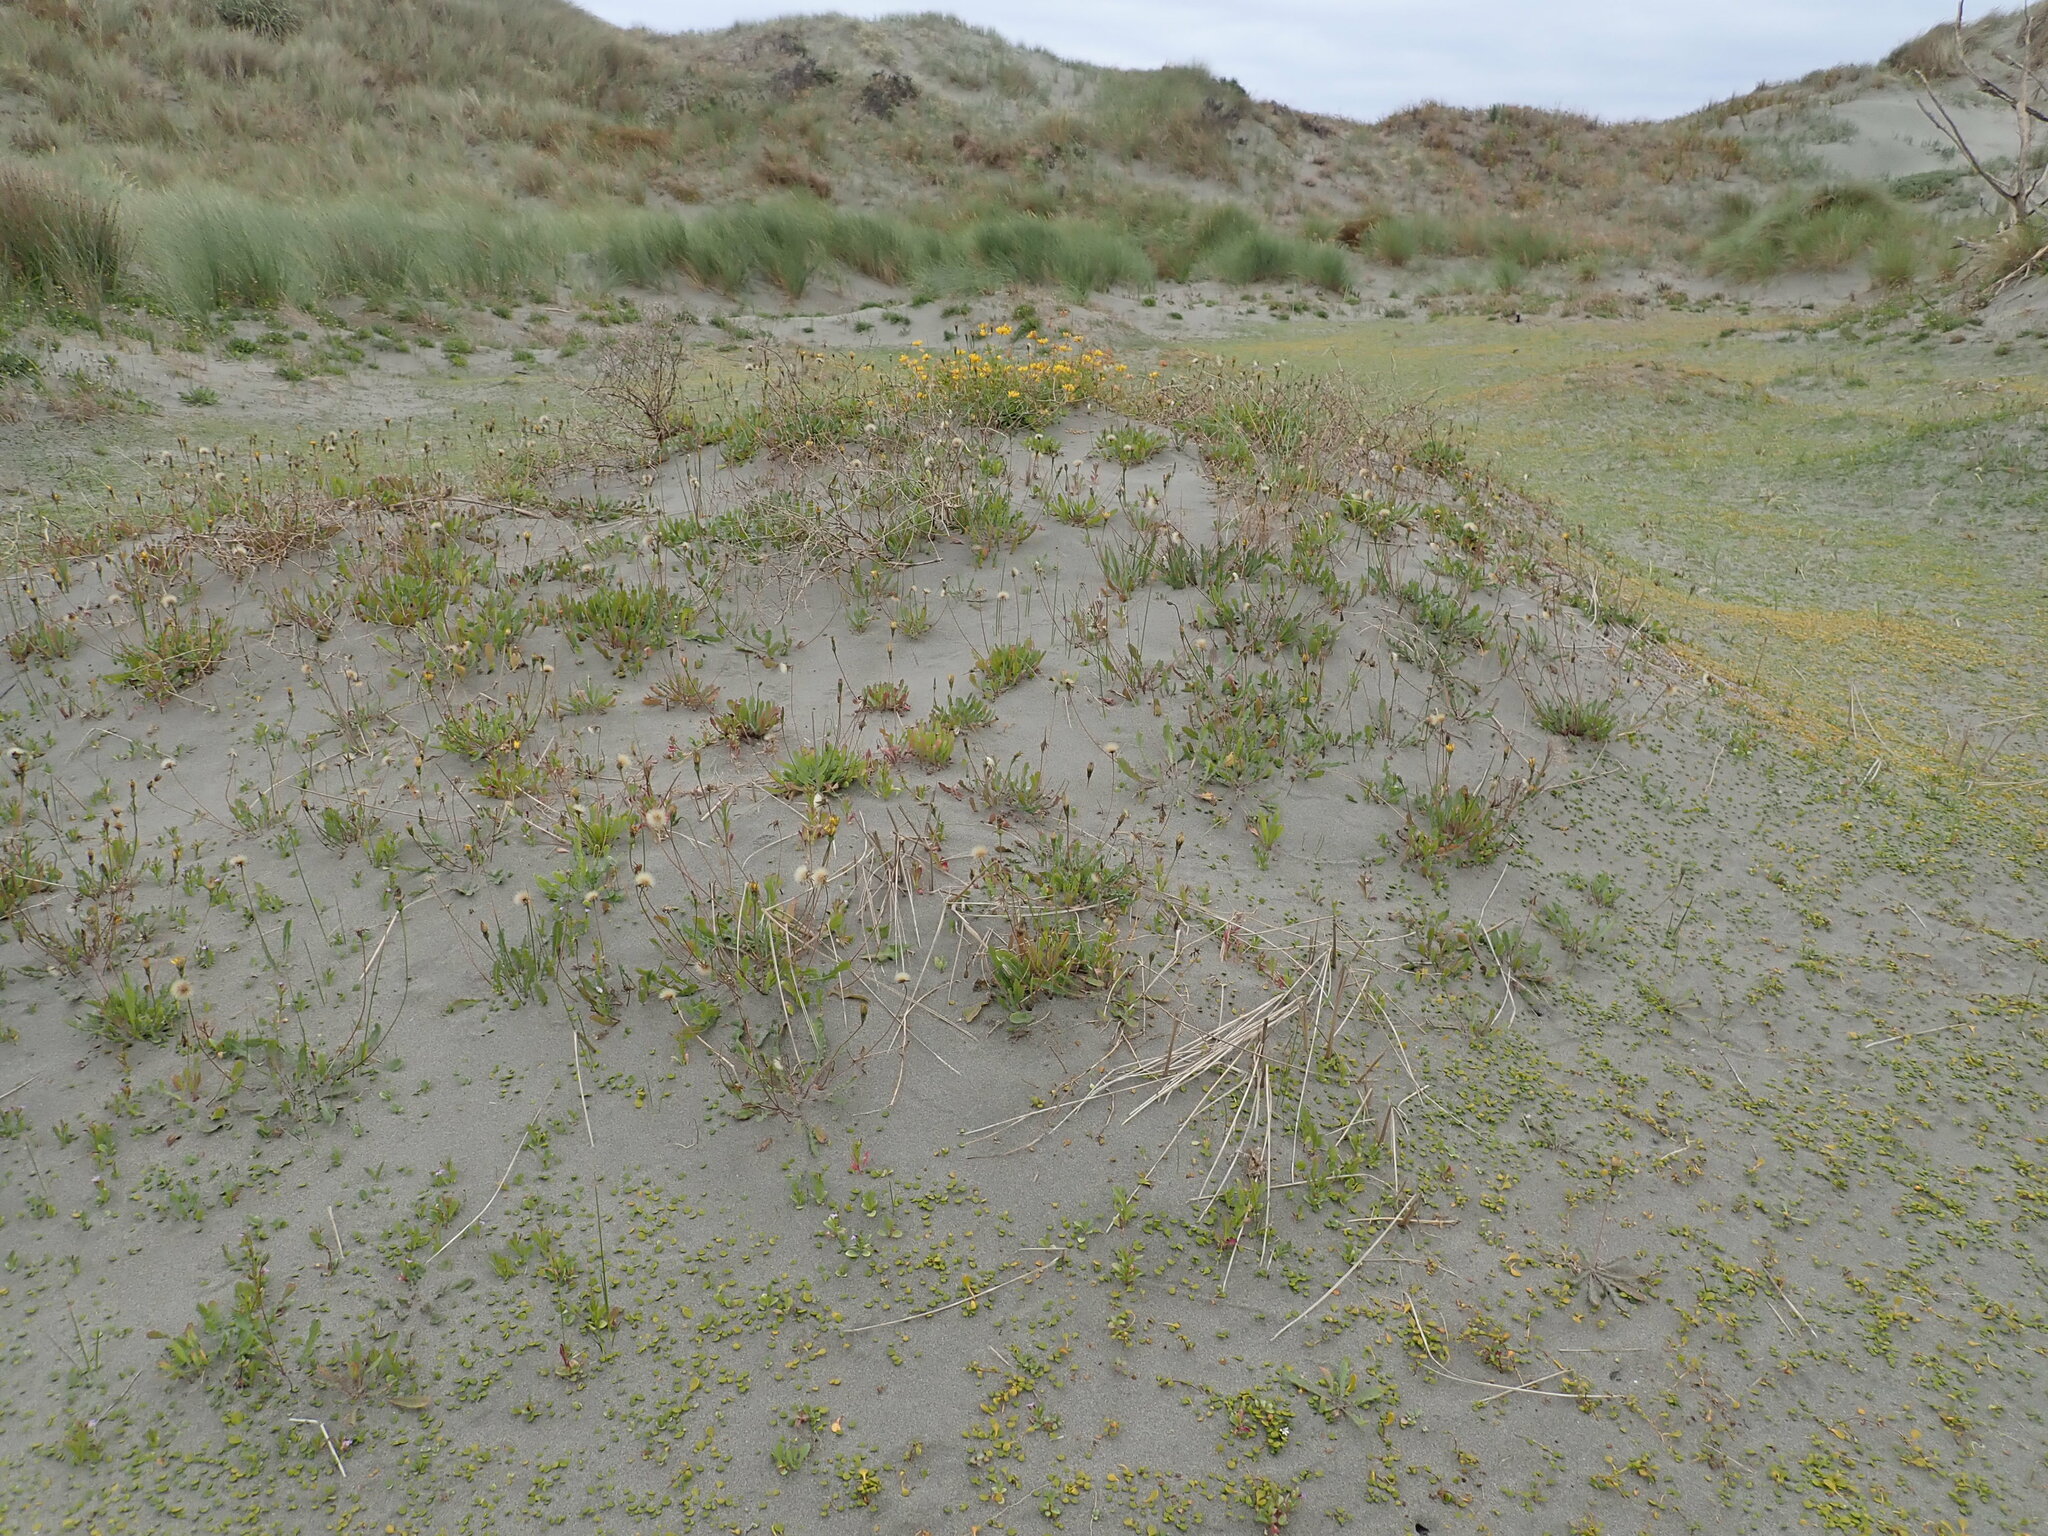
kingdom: Plantae
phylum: Tracheophyta
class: Magnoliopsida
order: Fabales
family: Fabaceae
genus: Lotus
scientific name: Lotus pedunculatus
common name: Greater birdsfoot-trefoil
